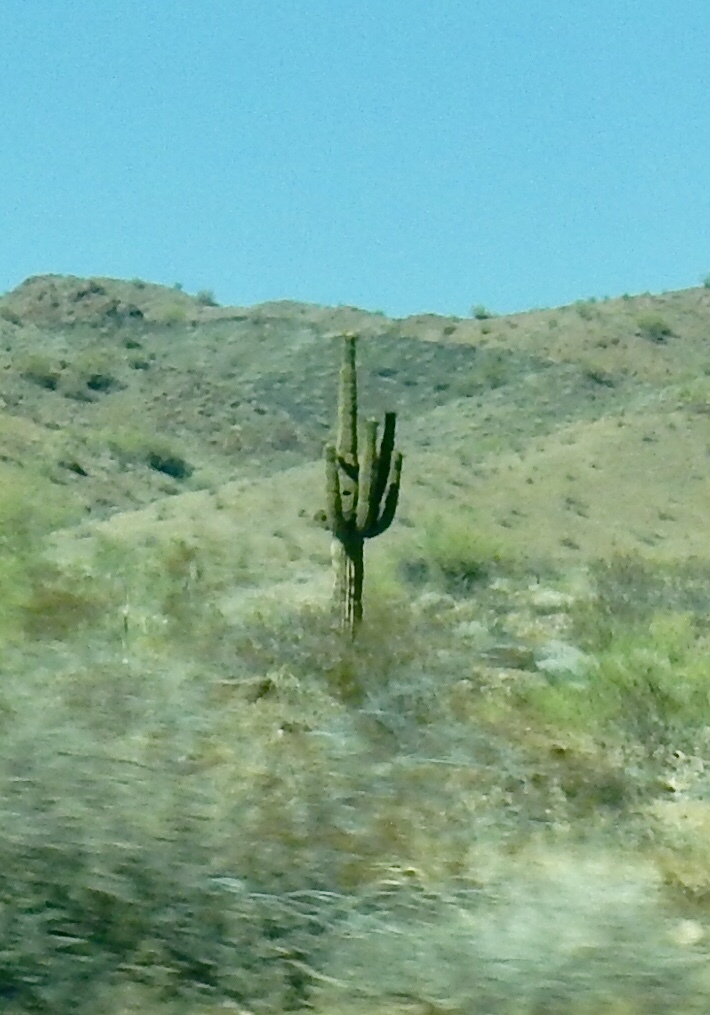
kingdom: Plantae
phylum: Tracheophyta
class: Magnoliopsida
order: Caryophyllales
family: Cactaceae
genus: Carnegiea
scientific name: Carnegiea gigantea
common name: Saguaro
